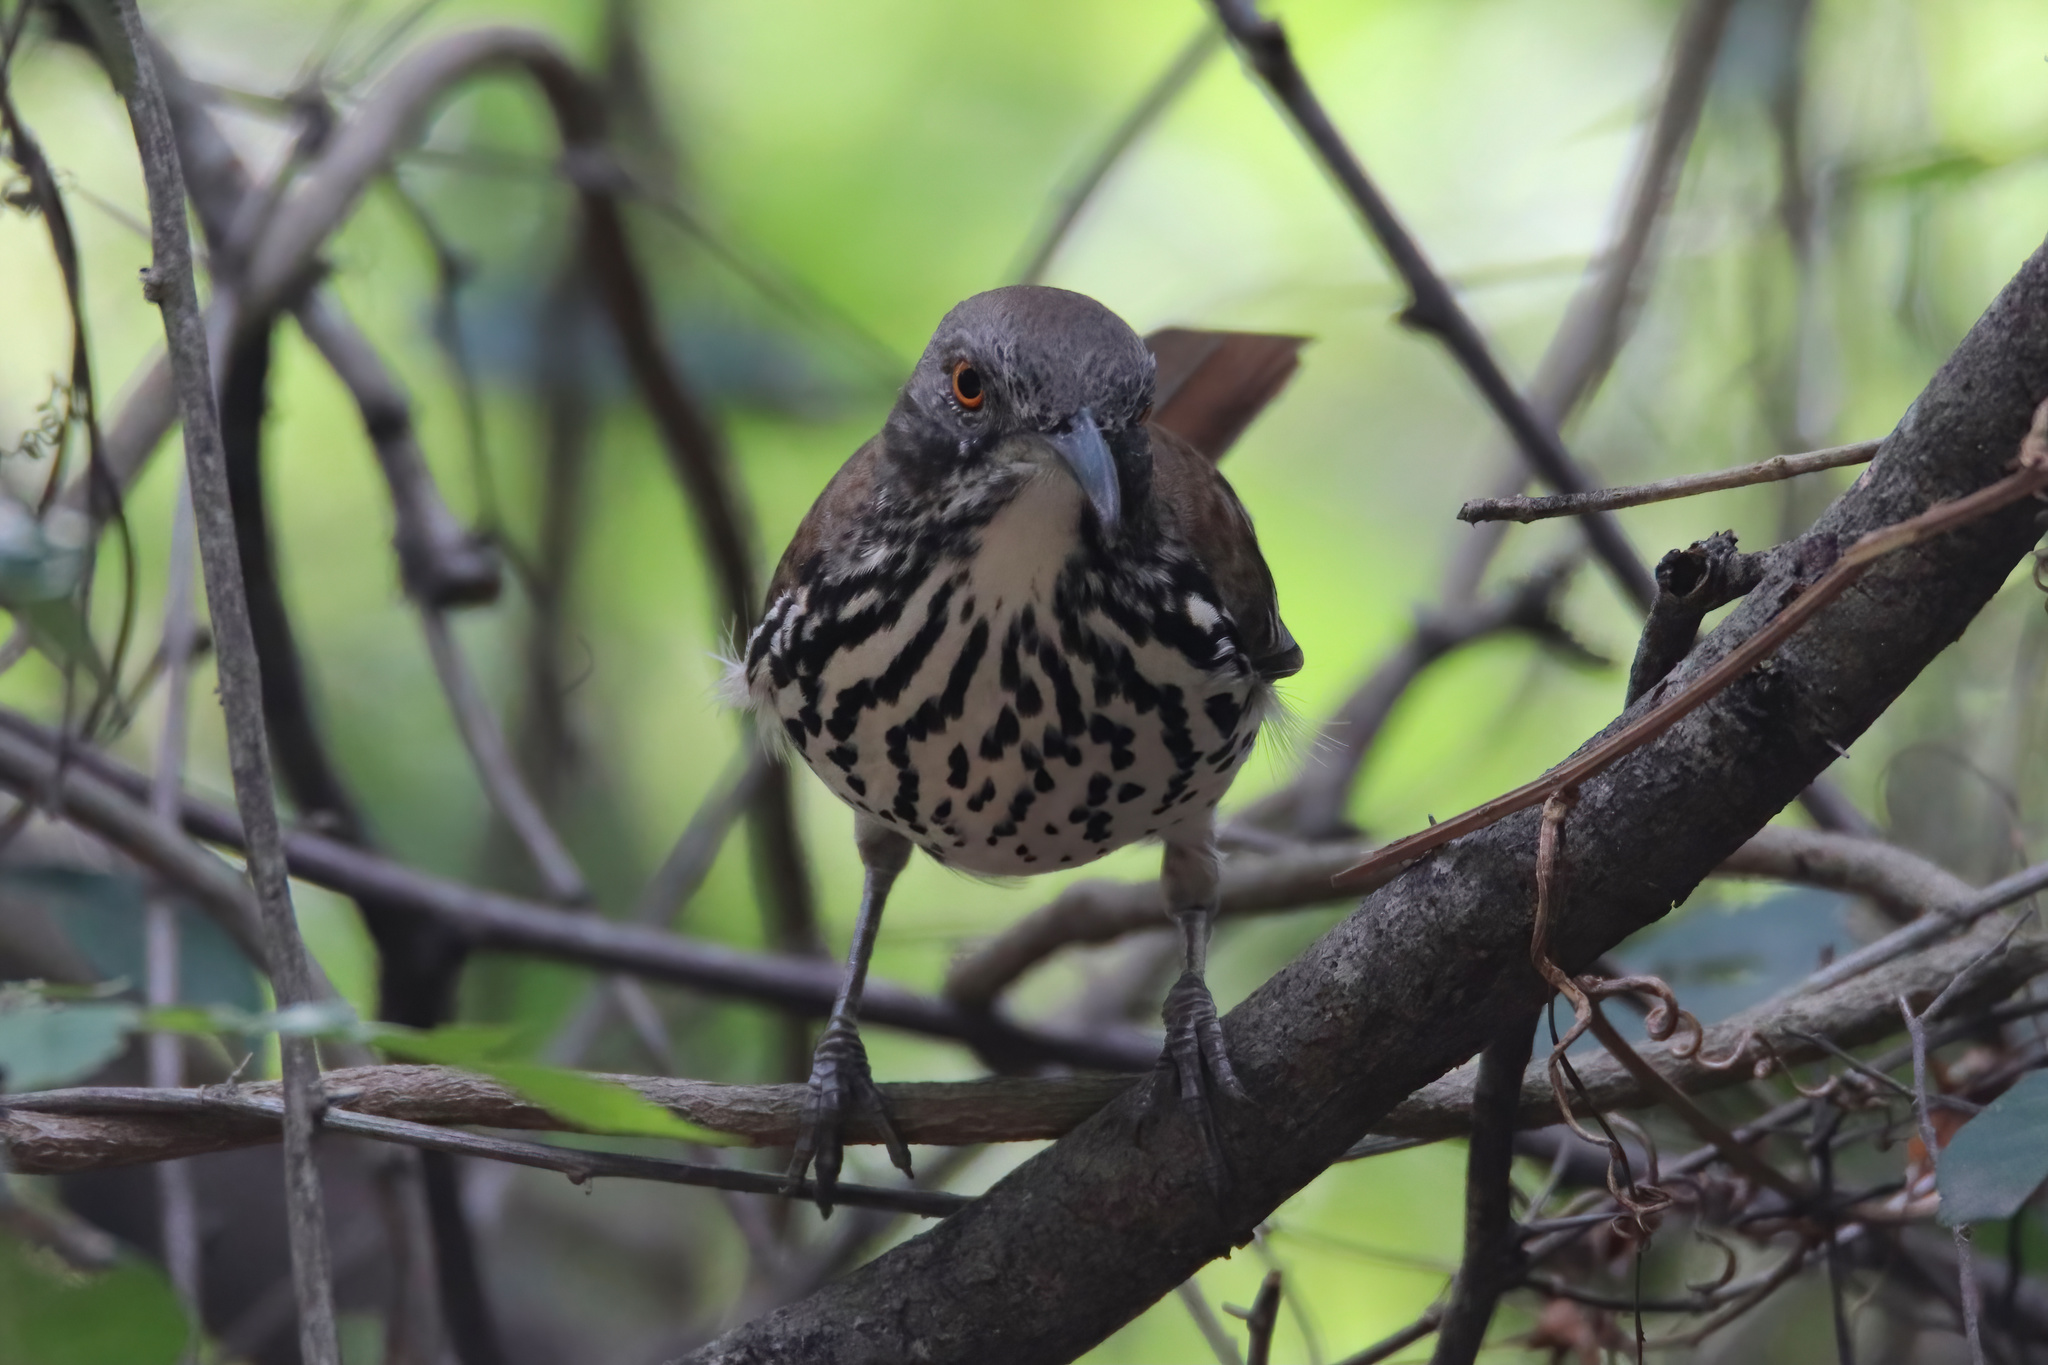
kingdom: Animalia
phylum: Chordata
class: Aves
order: Passeriformes
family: Mimidae
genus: Toxostoma
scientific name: Toxostoma longirostre
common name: Long-billed thrasher
